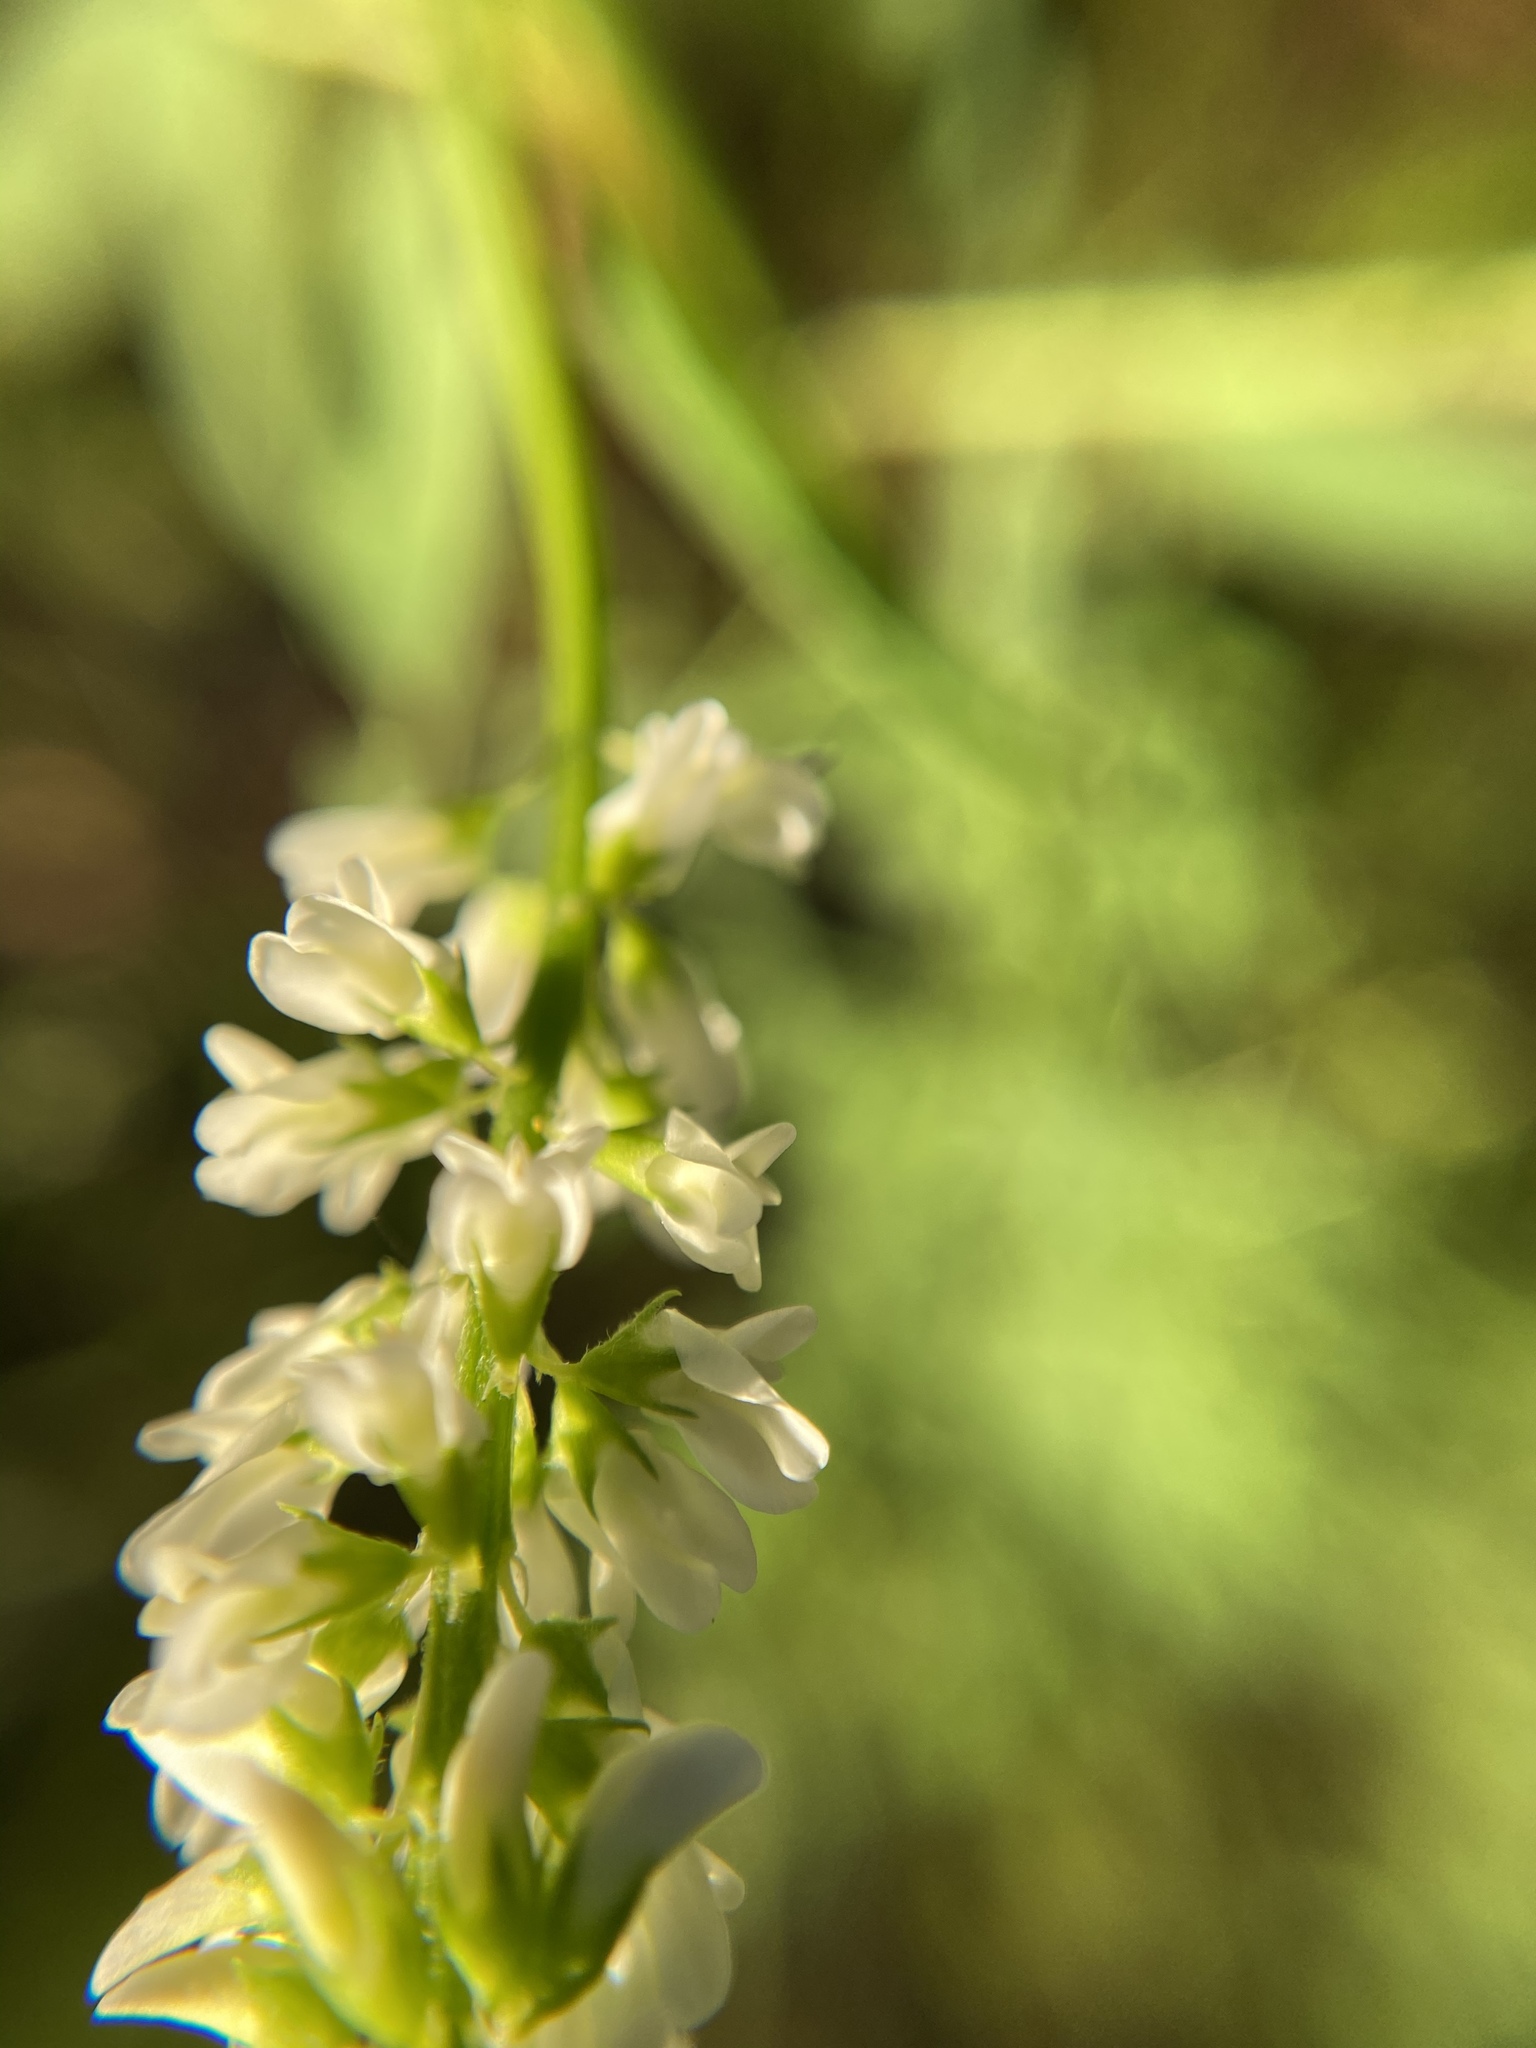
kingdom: Plantae
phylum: Tracheophyta
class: Magnoliopsida
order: Fabales
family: Fabaceae
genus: Melilotus
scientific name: Melilotus albus
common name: White melilot
